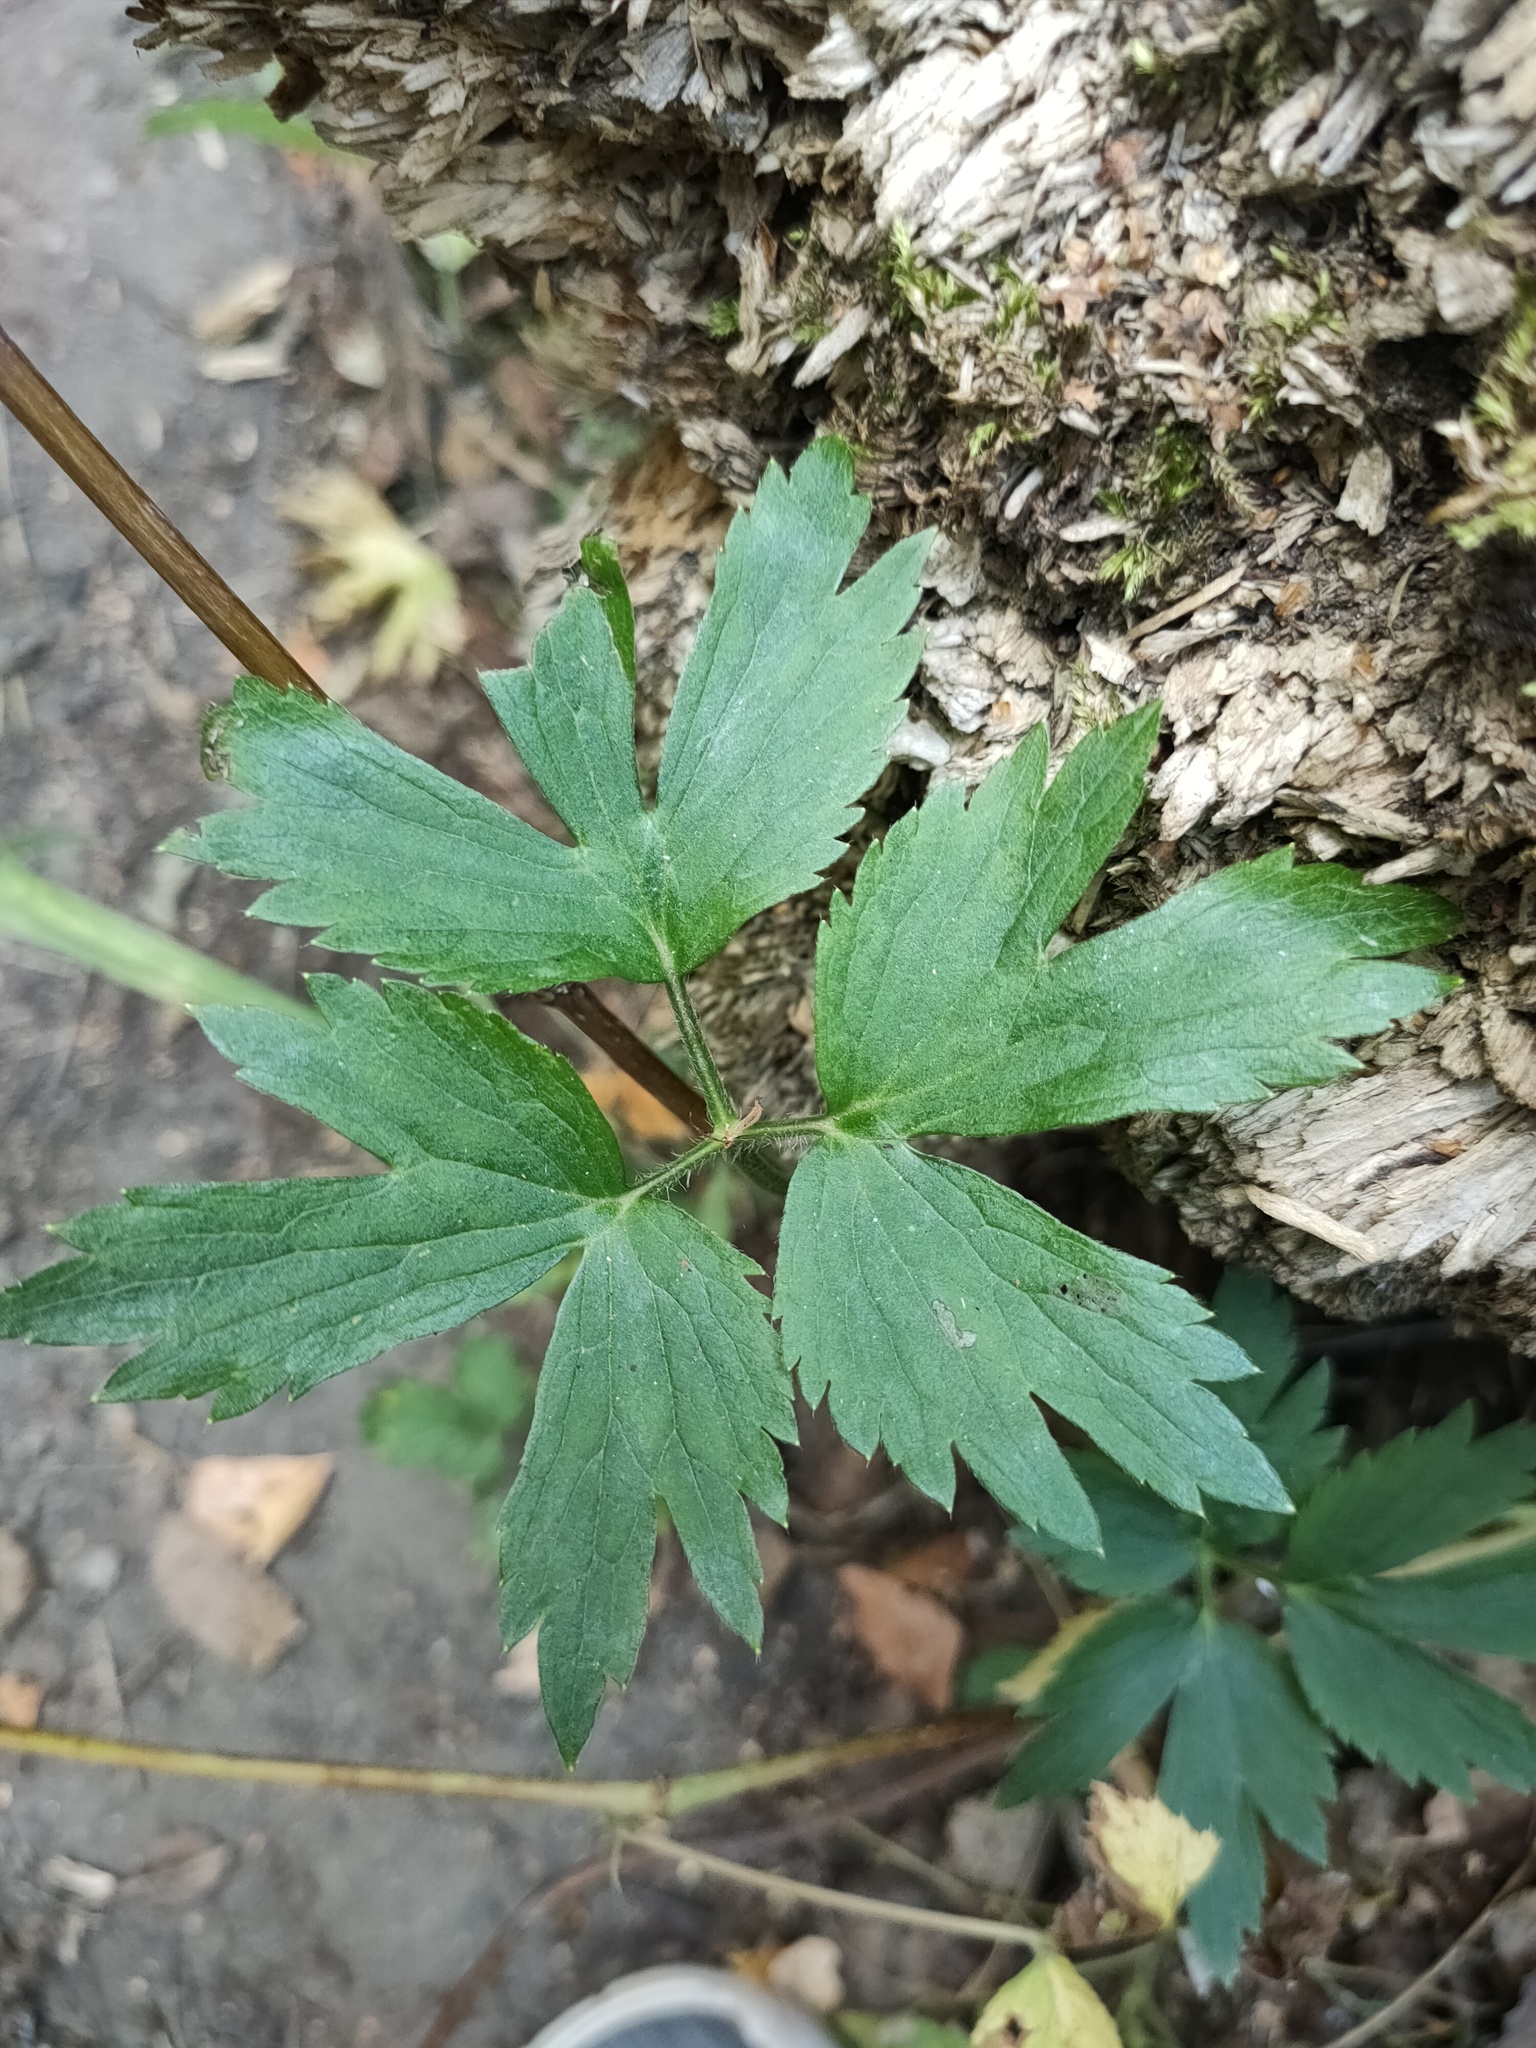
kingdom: Plantae
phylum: Tracheophyta
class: Magnoliopsida
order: Ranunculales
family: Ranunculaceae
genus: Ranunculus
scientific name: Ranunculus repens
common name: Creeping buttercup
